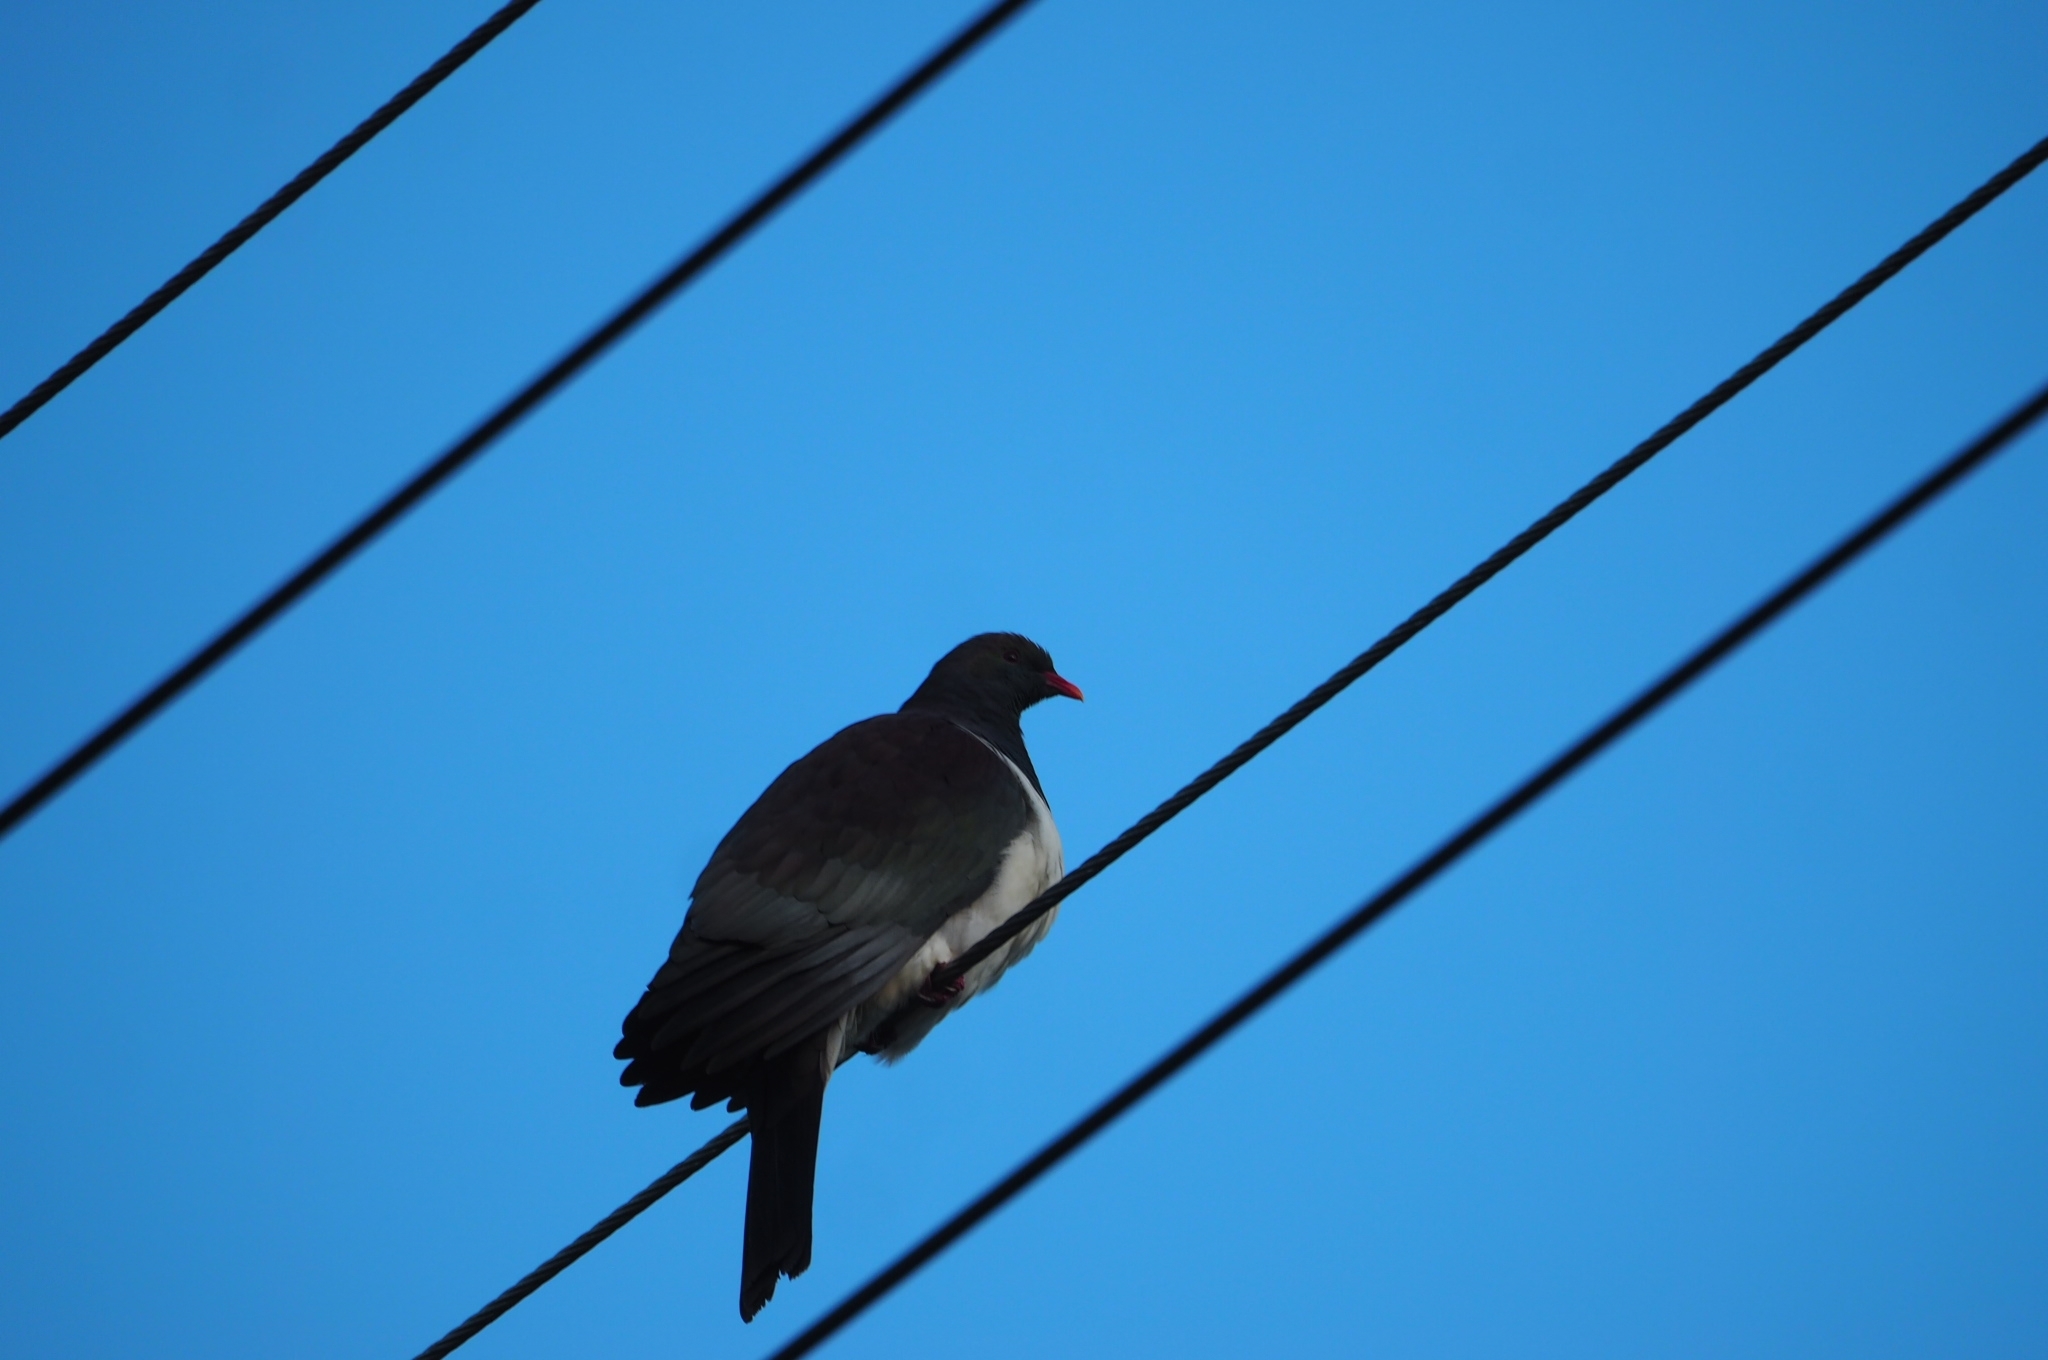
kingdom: Animalia
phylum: Chordata
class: Aves
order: Columbiformes
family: Columbidae
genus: Hemiphaga
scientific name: Hemiphaga novaeseelandiae
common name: New zealand pigeon
